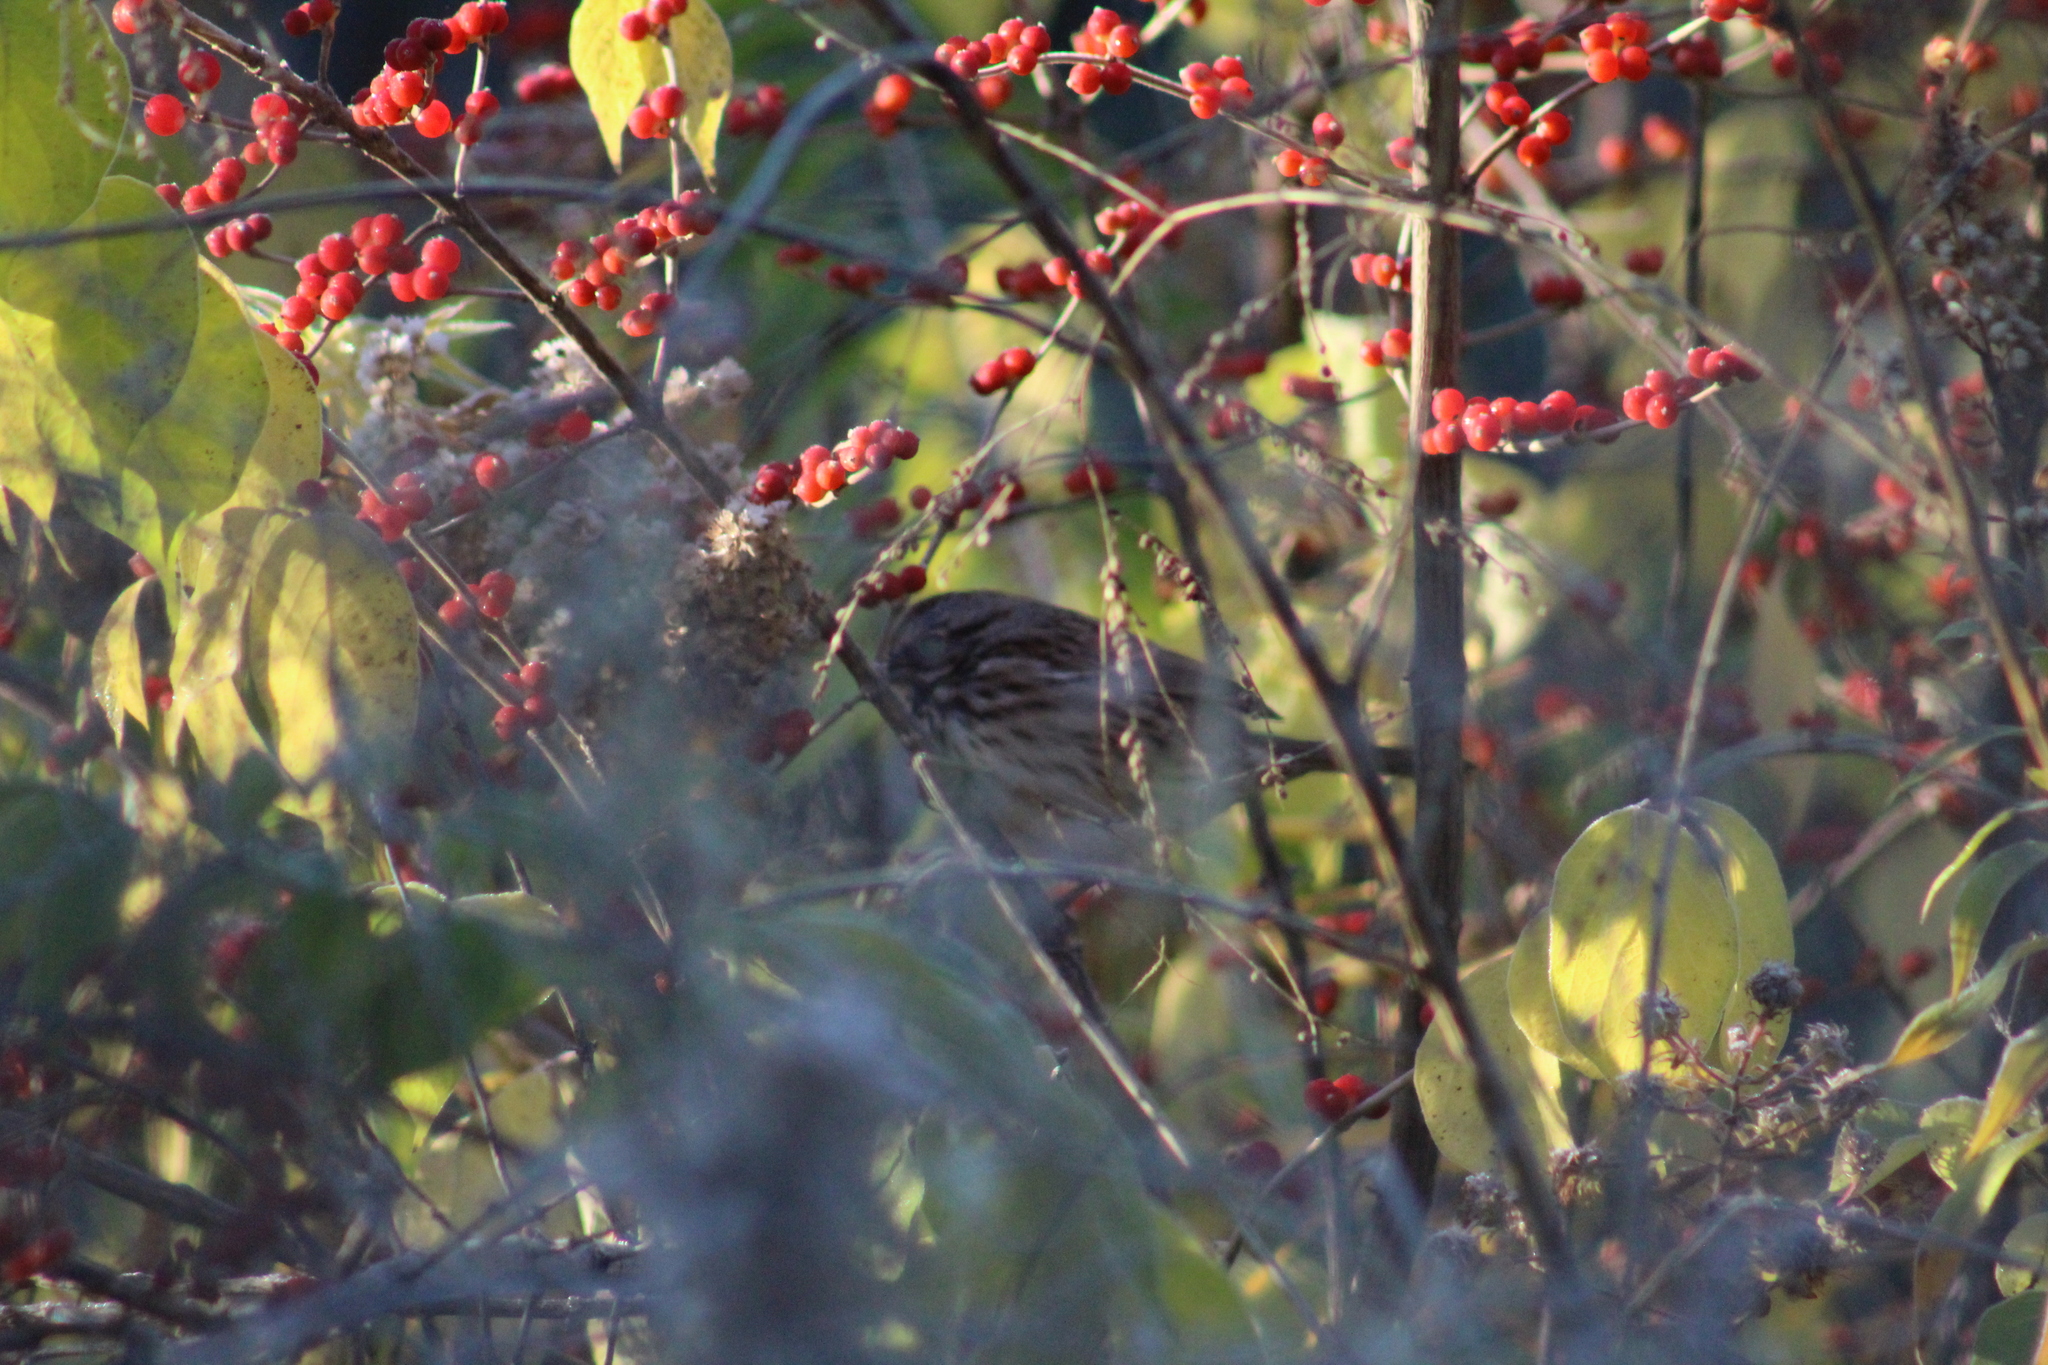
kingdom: Animalia
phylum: Chordata
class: Aves
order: Passeriformes
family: Passerellidae
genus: Melospiza
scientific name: Melospiza melodia
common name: Song sparrow
